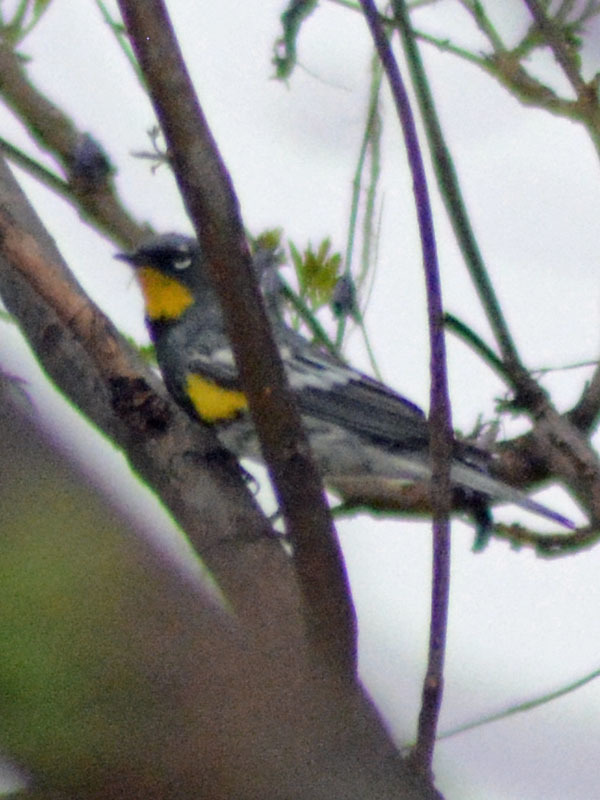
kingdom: Animalia
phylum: Chordata
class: Aves
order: Passeriformes
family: Parulidae
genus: Setophaga
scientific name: Setophaga auduboni
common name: Audubon's warbler
